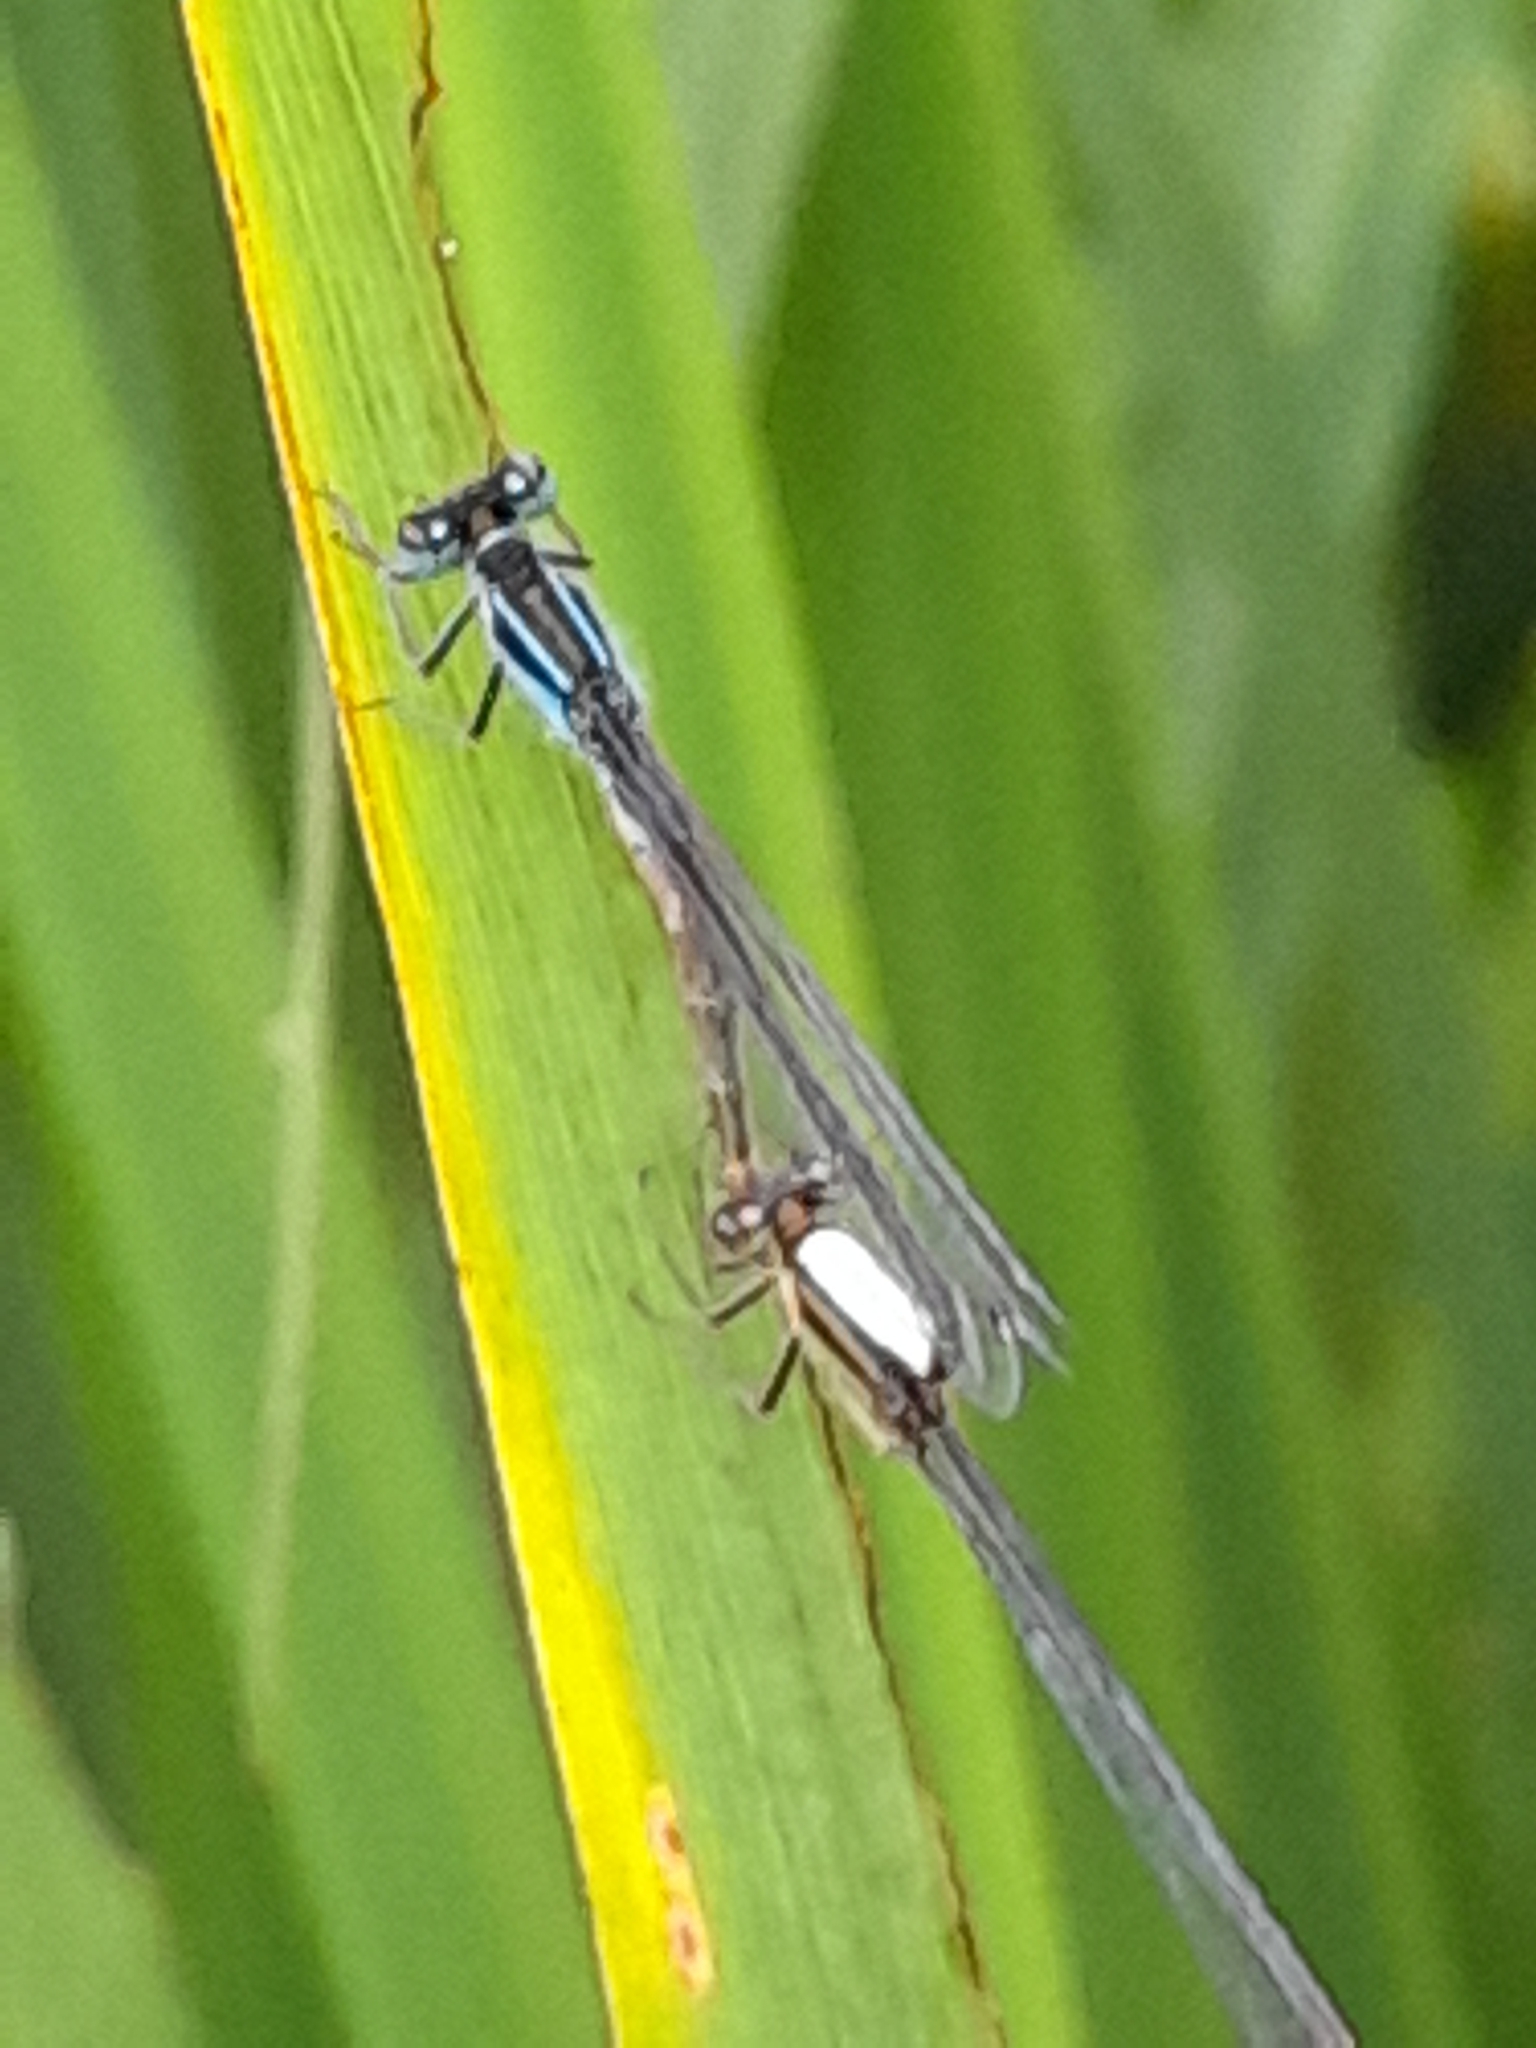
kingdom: Animalia
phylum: Arthropoda
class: Insecta
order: Odonata
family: Coenagrionidae
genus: Ischnura
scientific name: Ischnura elegans
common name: Blue-tailed damselfly
